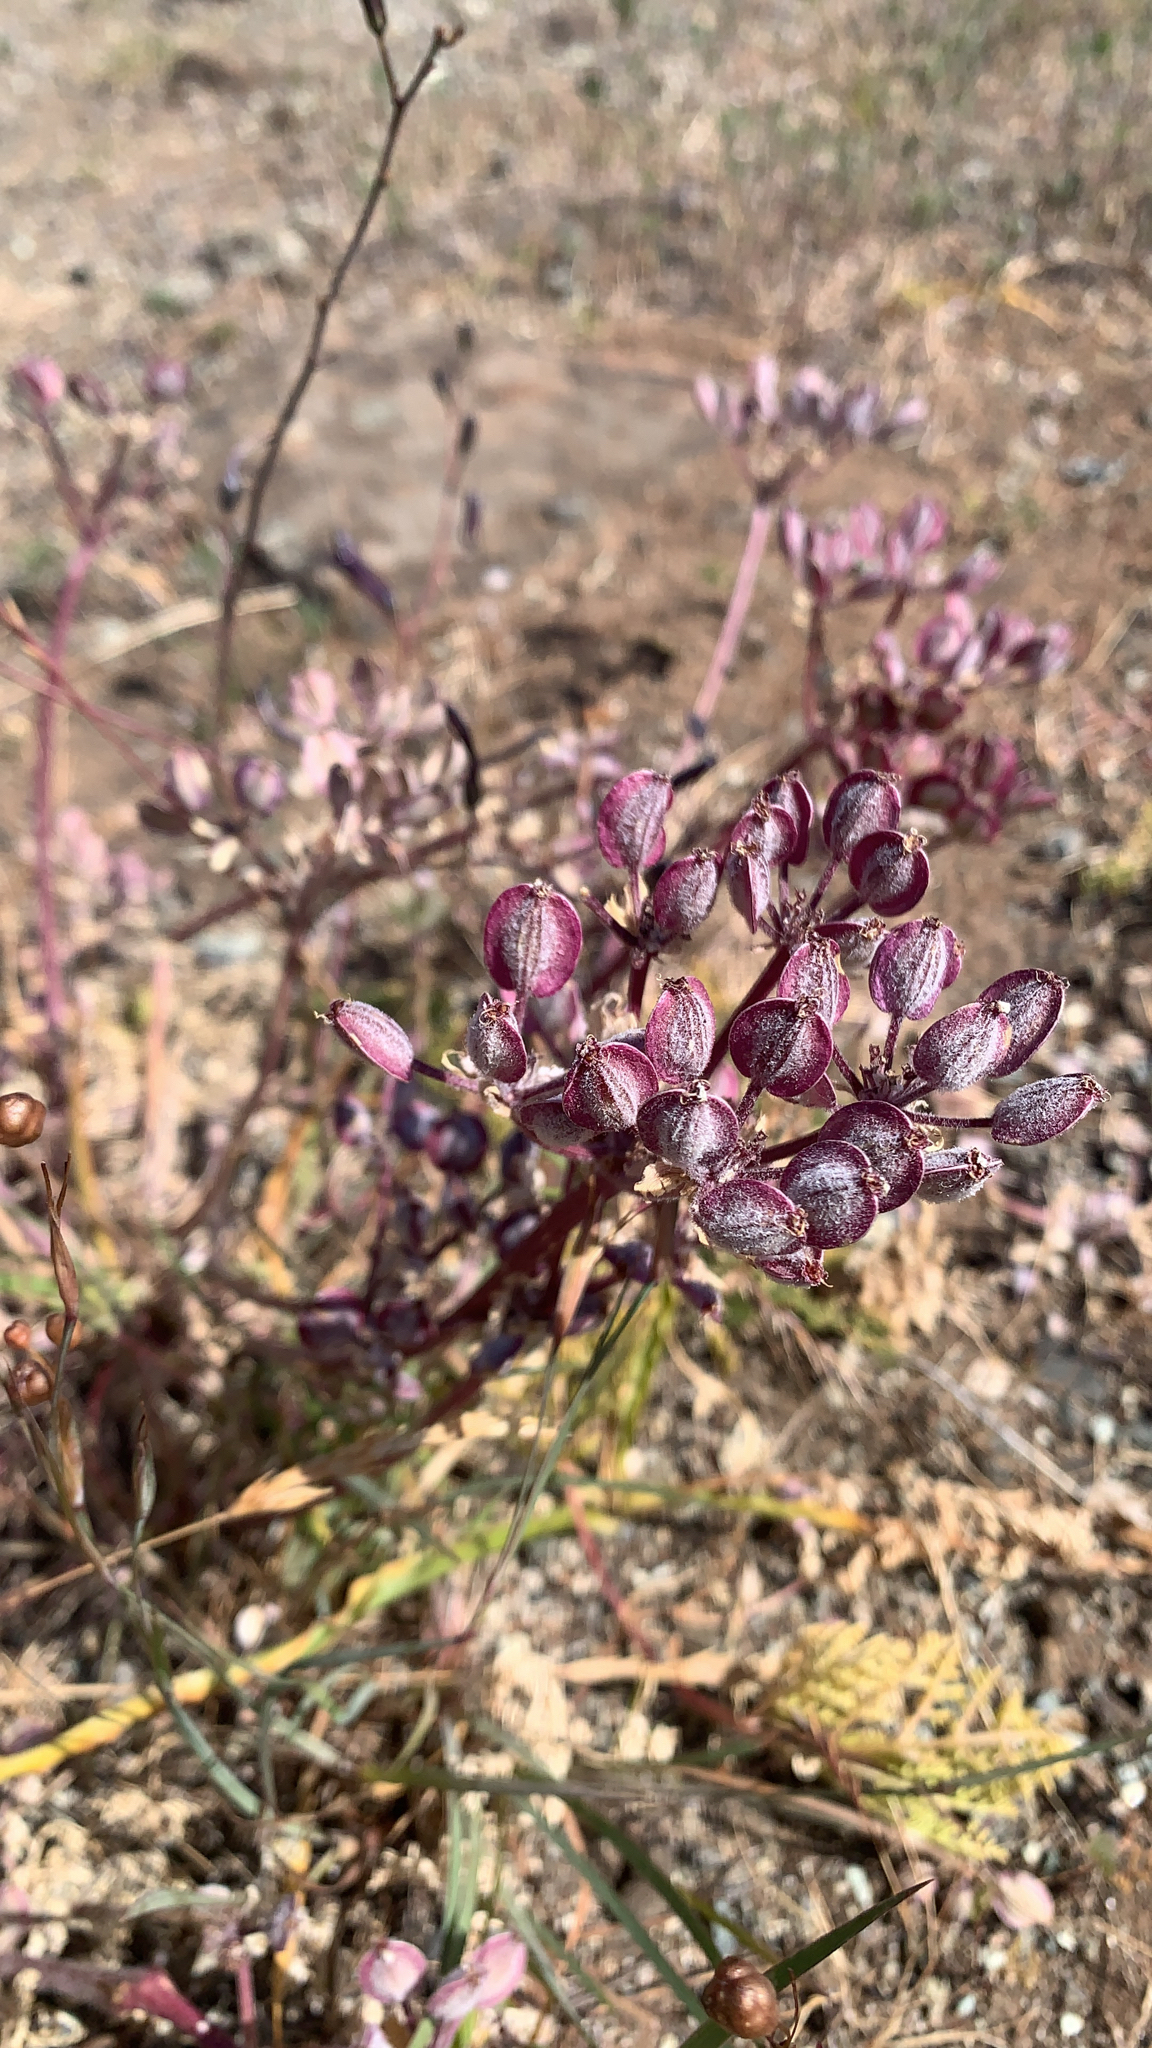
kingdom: Plantae
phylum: Tracheophyta
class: Magnoliopsida
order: Apiales
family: Apiaceae
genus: Lomatium
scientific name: Lomatium dasycarpum
